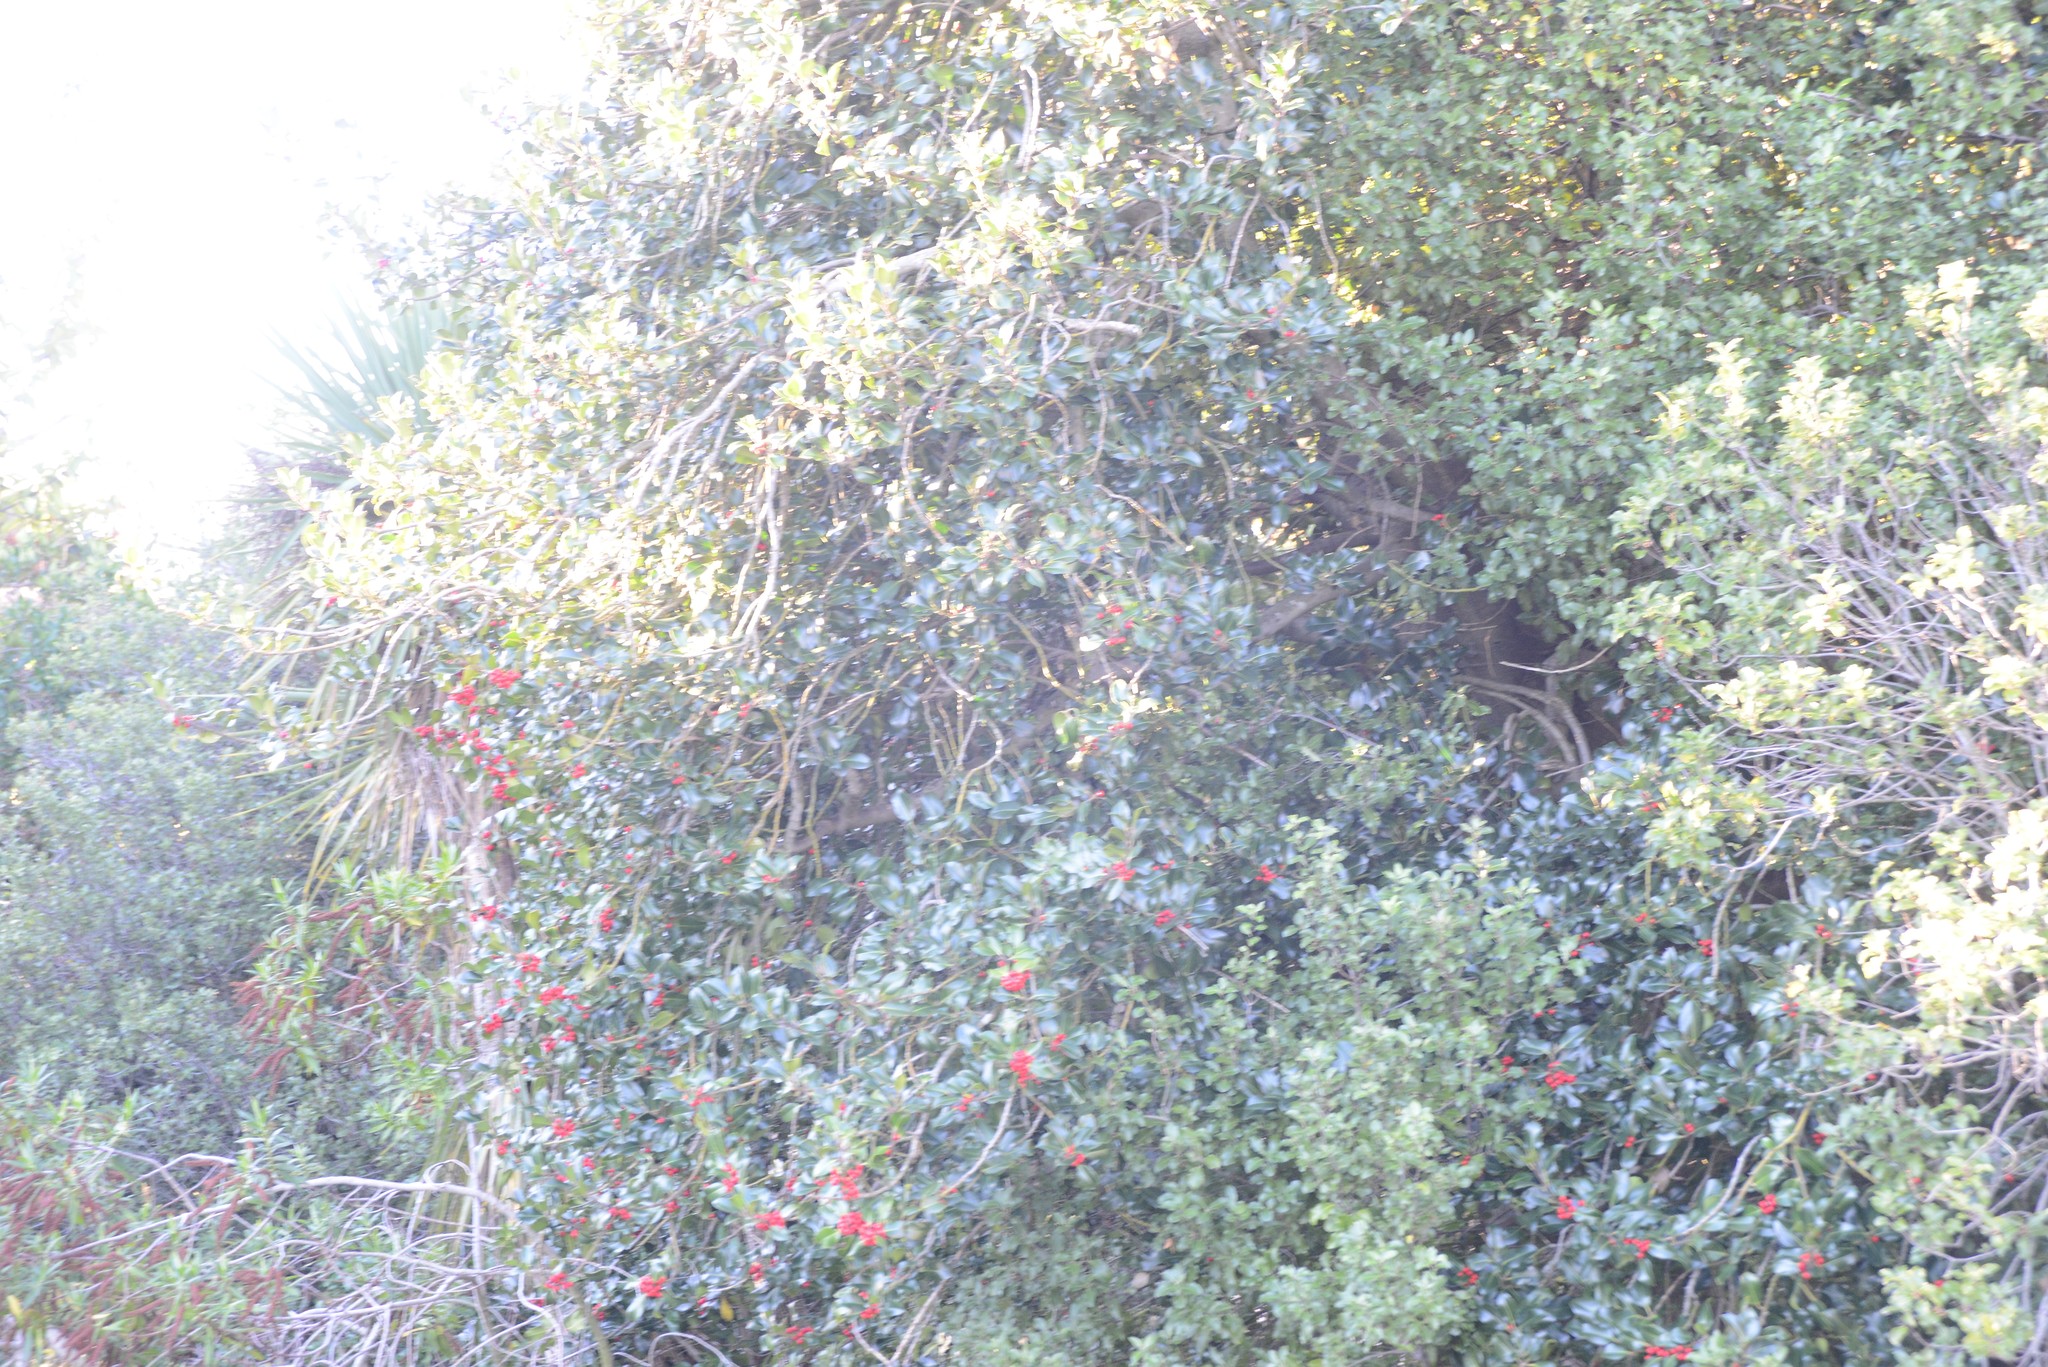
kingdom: Plantae
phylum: Tracheophyta
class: Magnoliopsida
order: Aquifoliales
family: Aquifoliaceae
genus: Ilex
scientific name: Ilex aquifolium
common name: English holly
